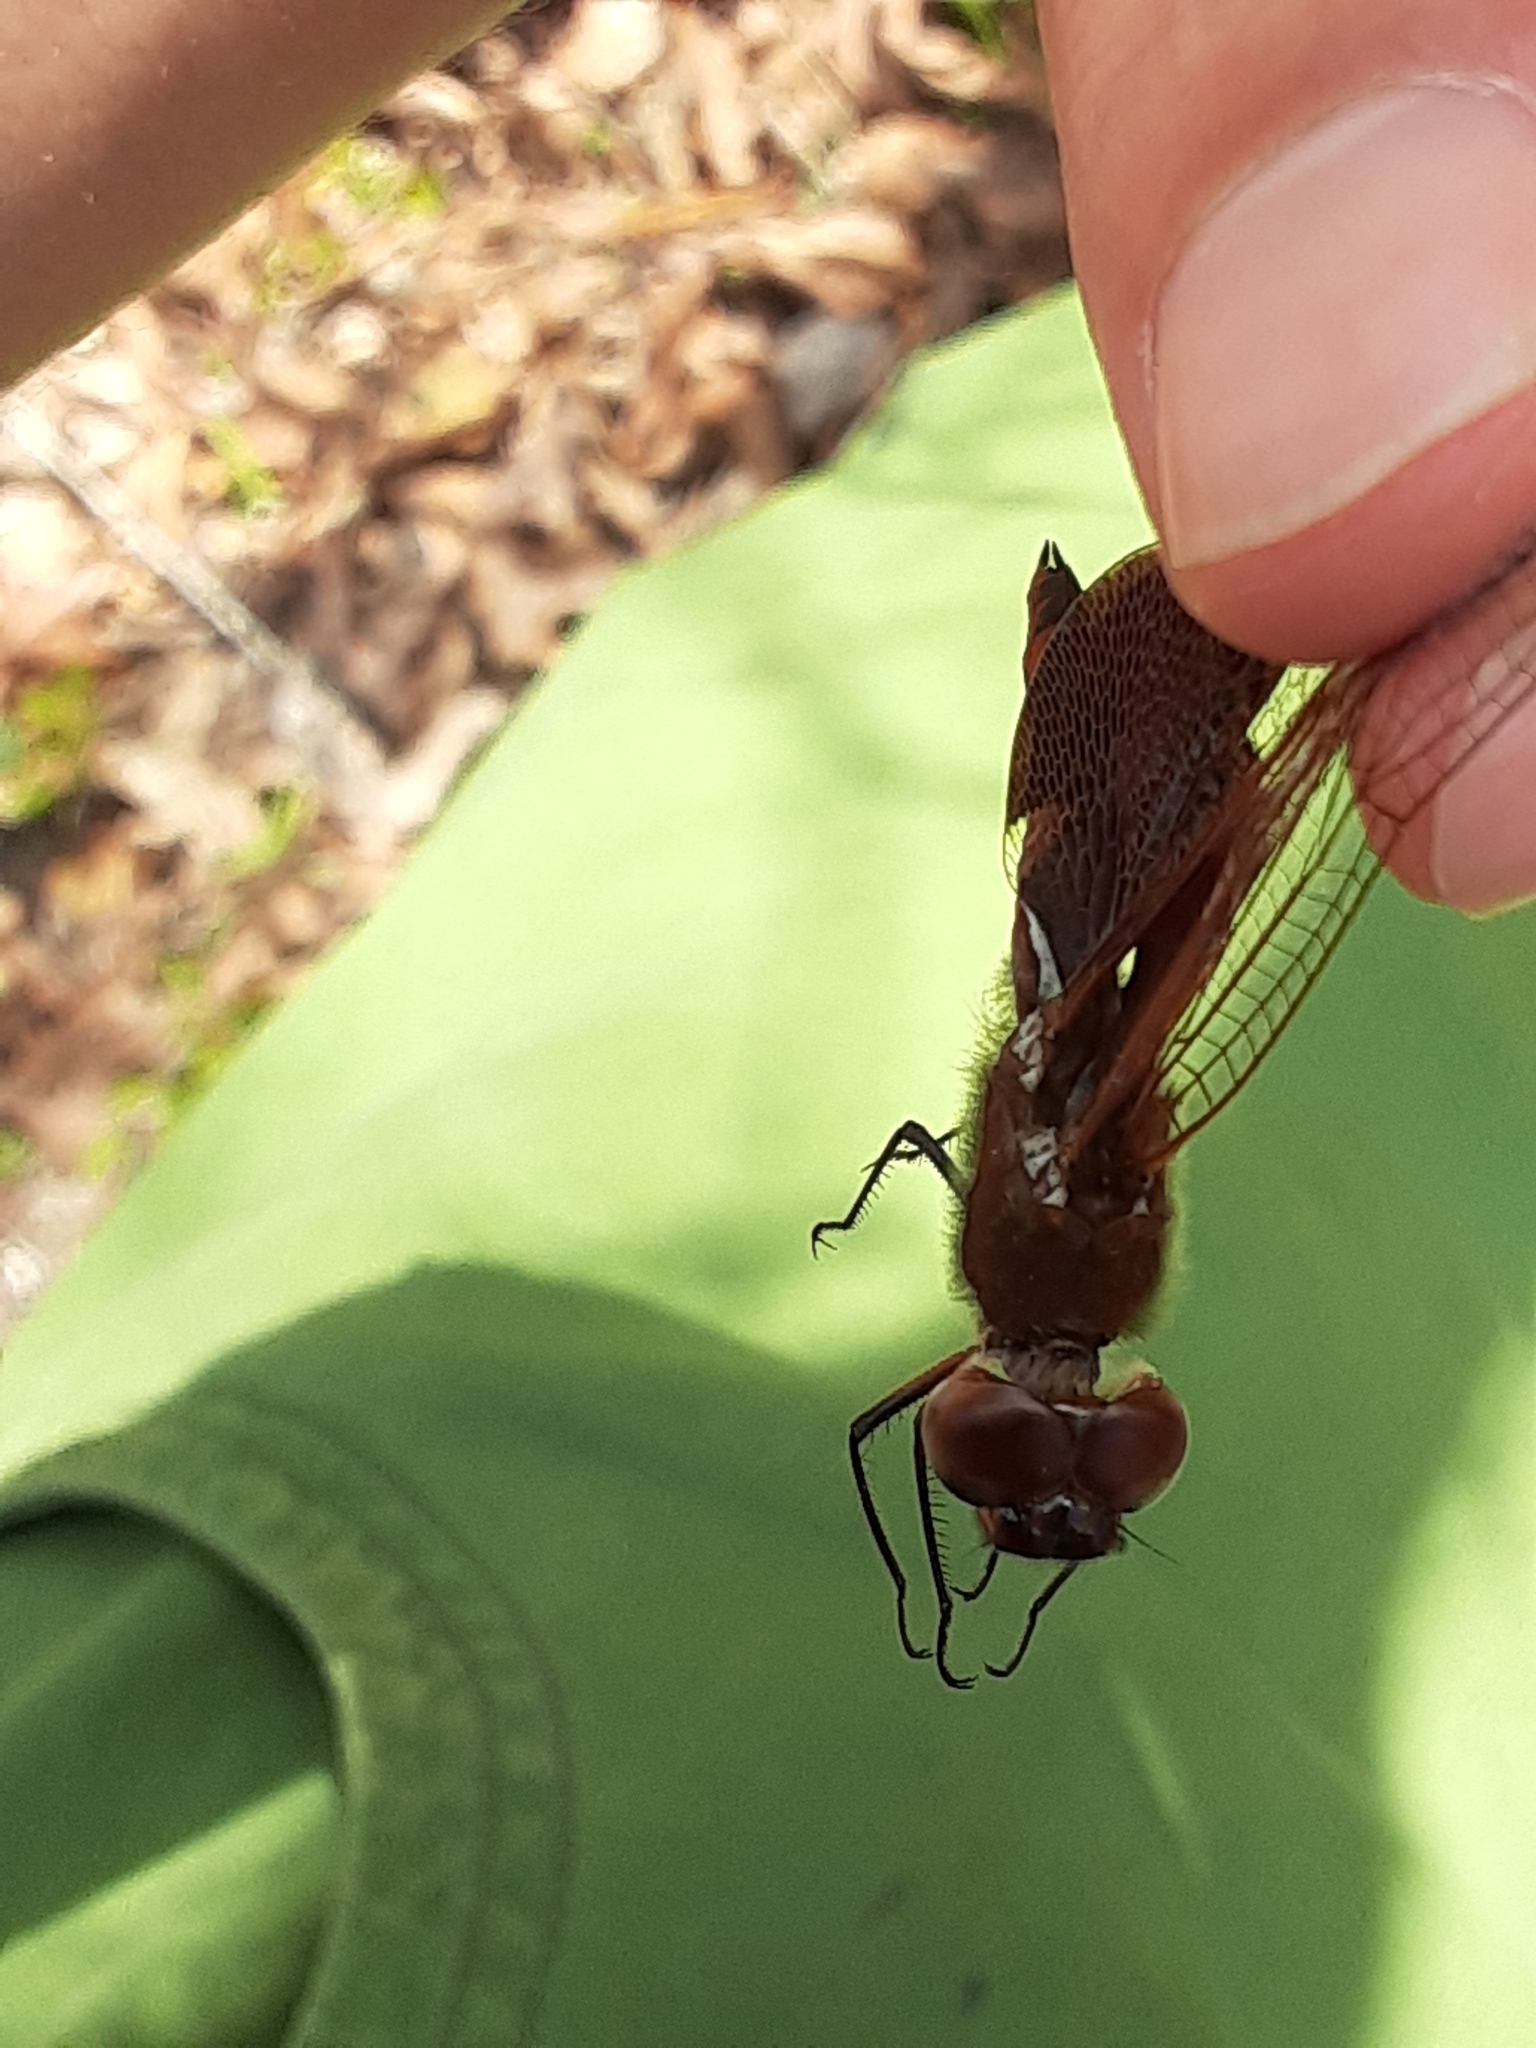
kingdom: Animalia
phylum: Arthropoda
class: Insecta
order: Odonata
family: Libellulidae
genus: Tramea
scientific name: Tramea carolina
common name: Carolina saddlebags
